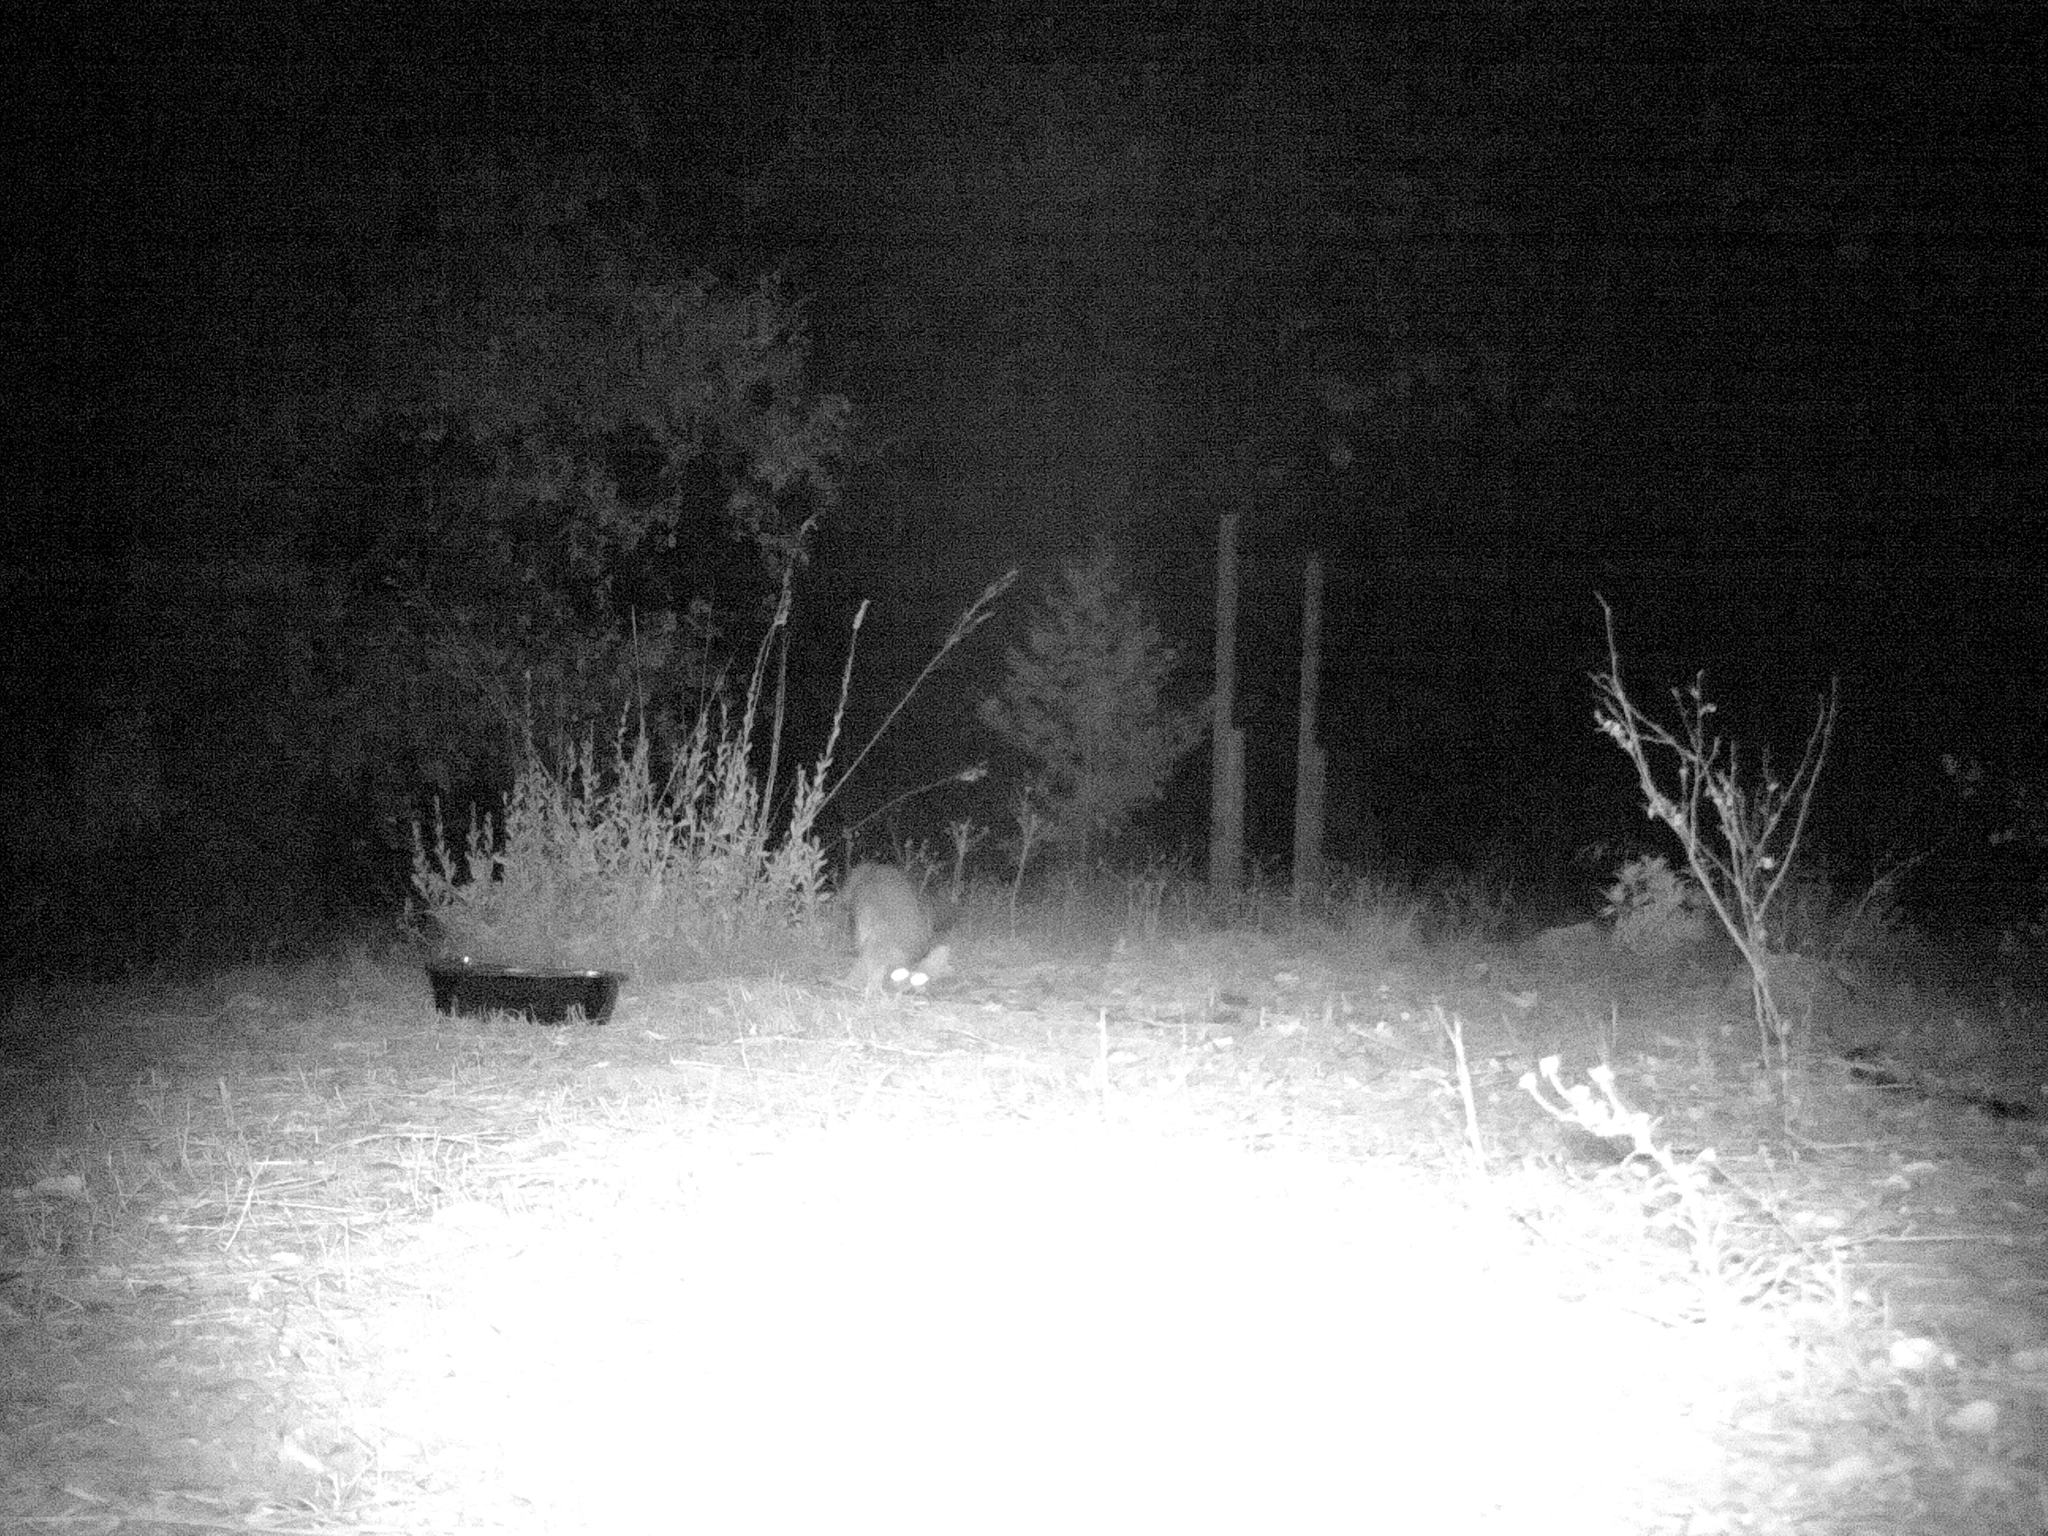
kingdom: Animalia
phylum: Chordata
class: Mammalia
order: Carnivora
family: Canidae
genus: Urocyon
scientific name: Urocyon cinereoargenteus
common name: Gray fox
